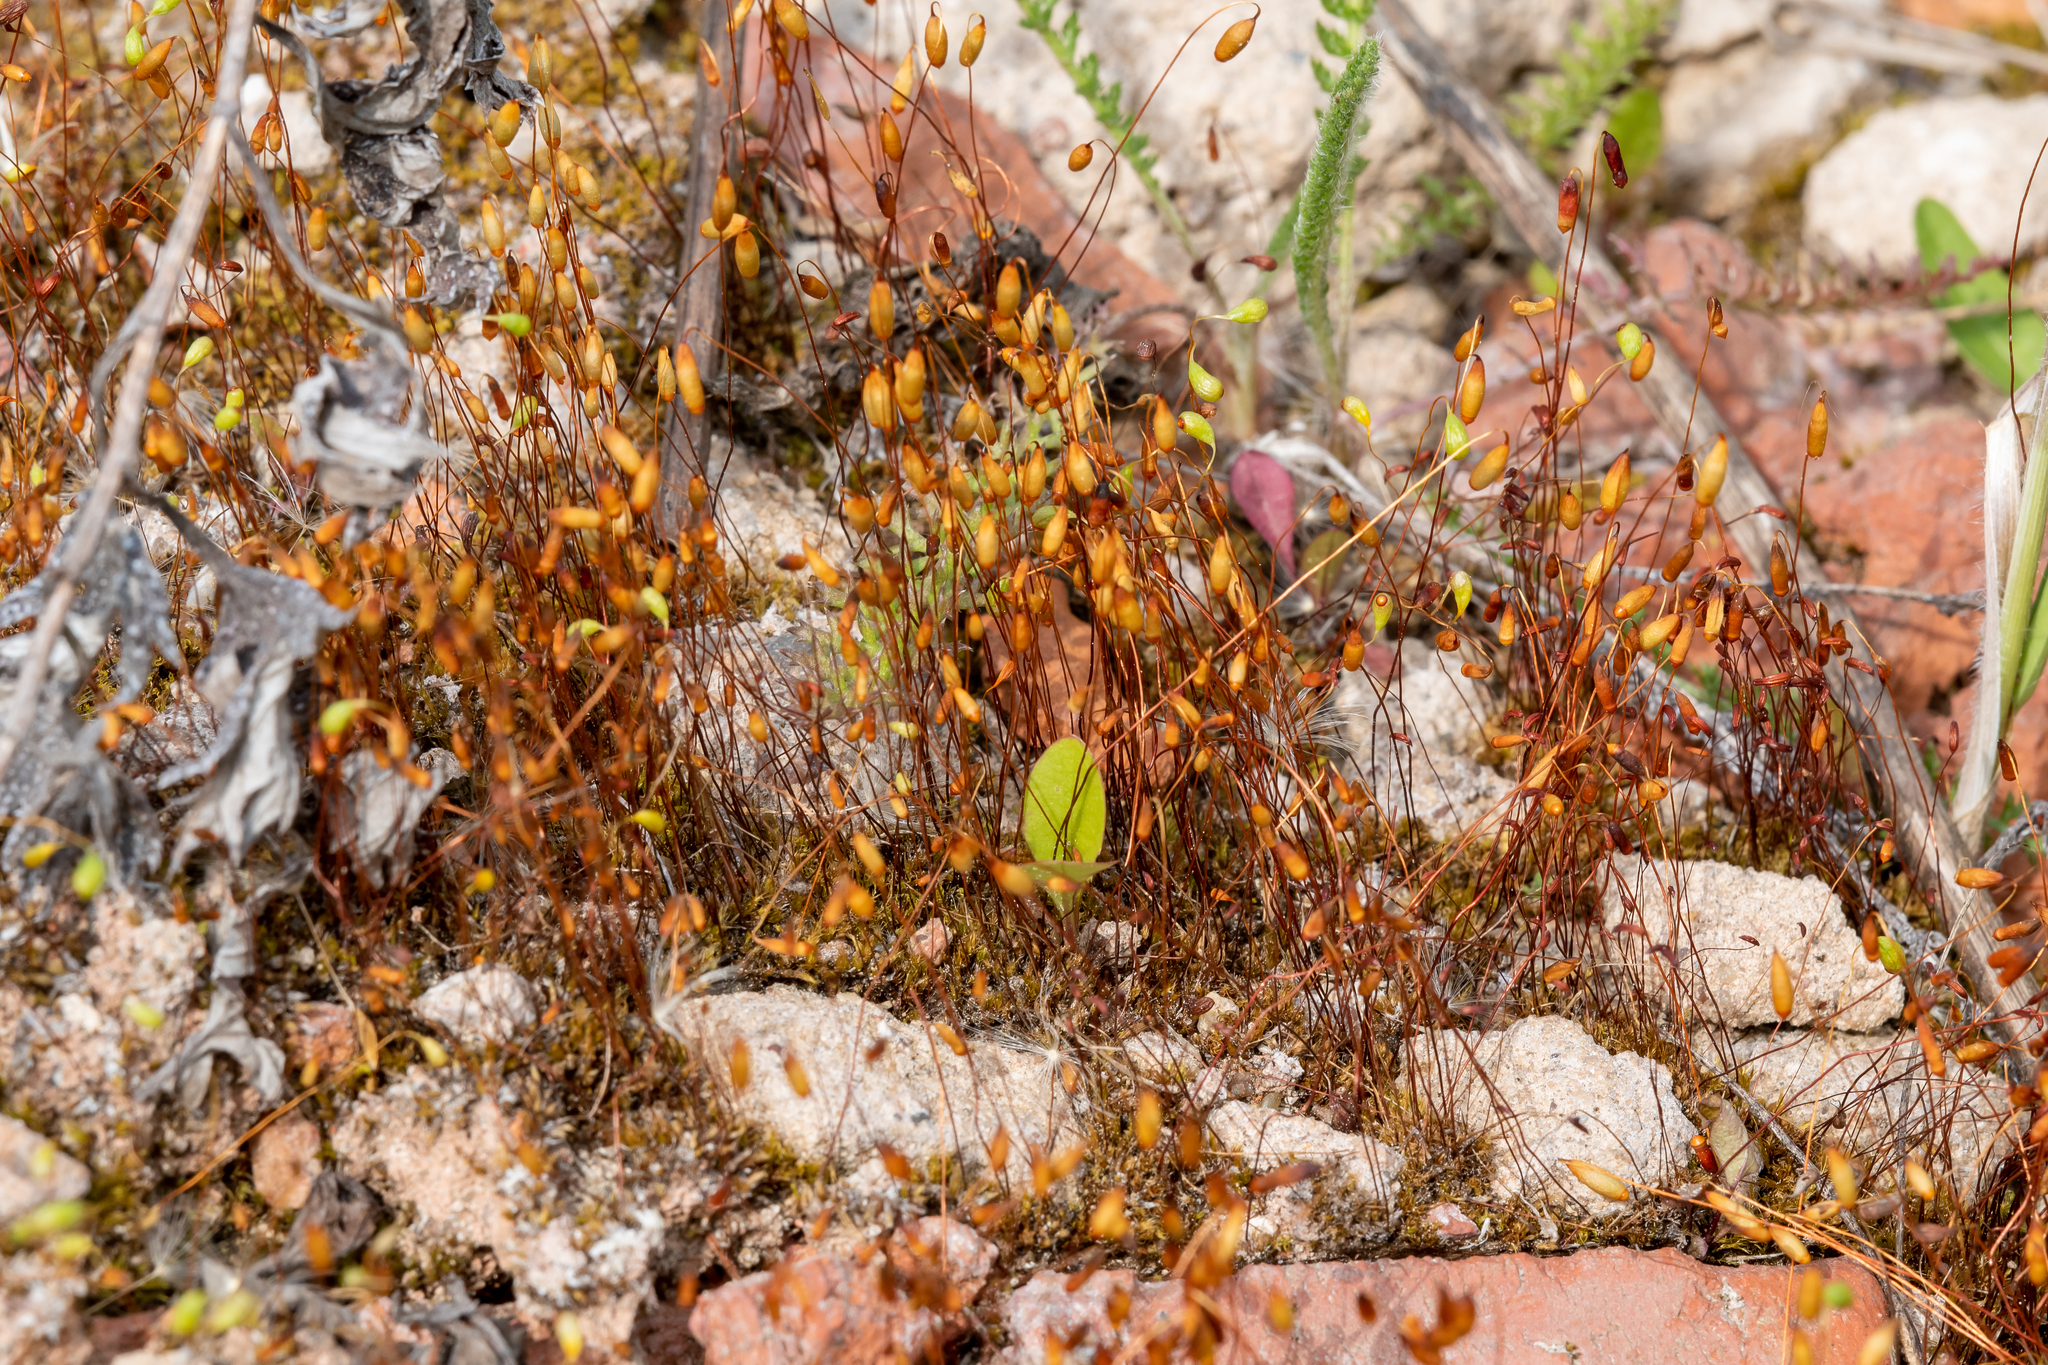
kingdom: Plantae
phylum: Bryophyta
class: Bryopsida
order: Funariales
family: Funariaceae
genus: Funaria
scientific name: Funaria hygrometrica
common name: Common cord moss
